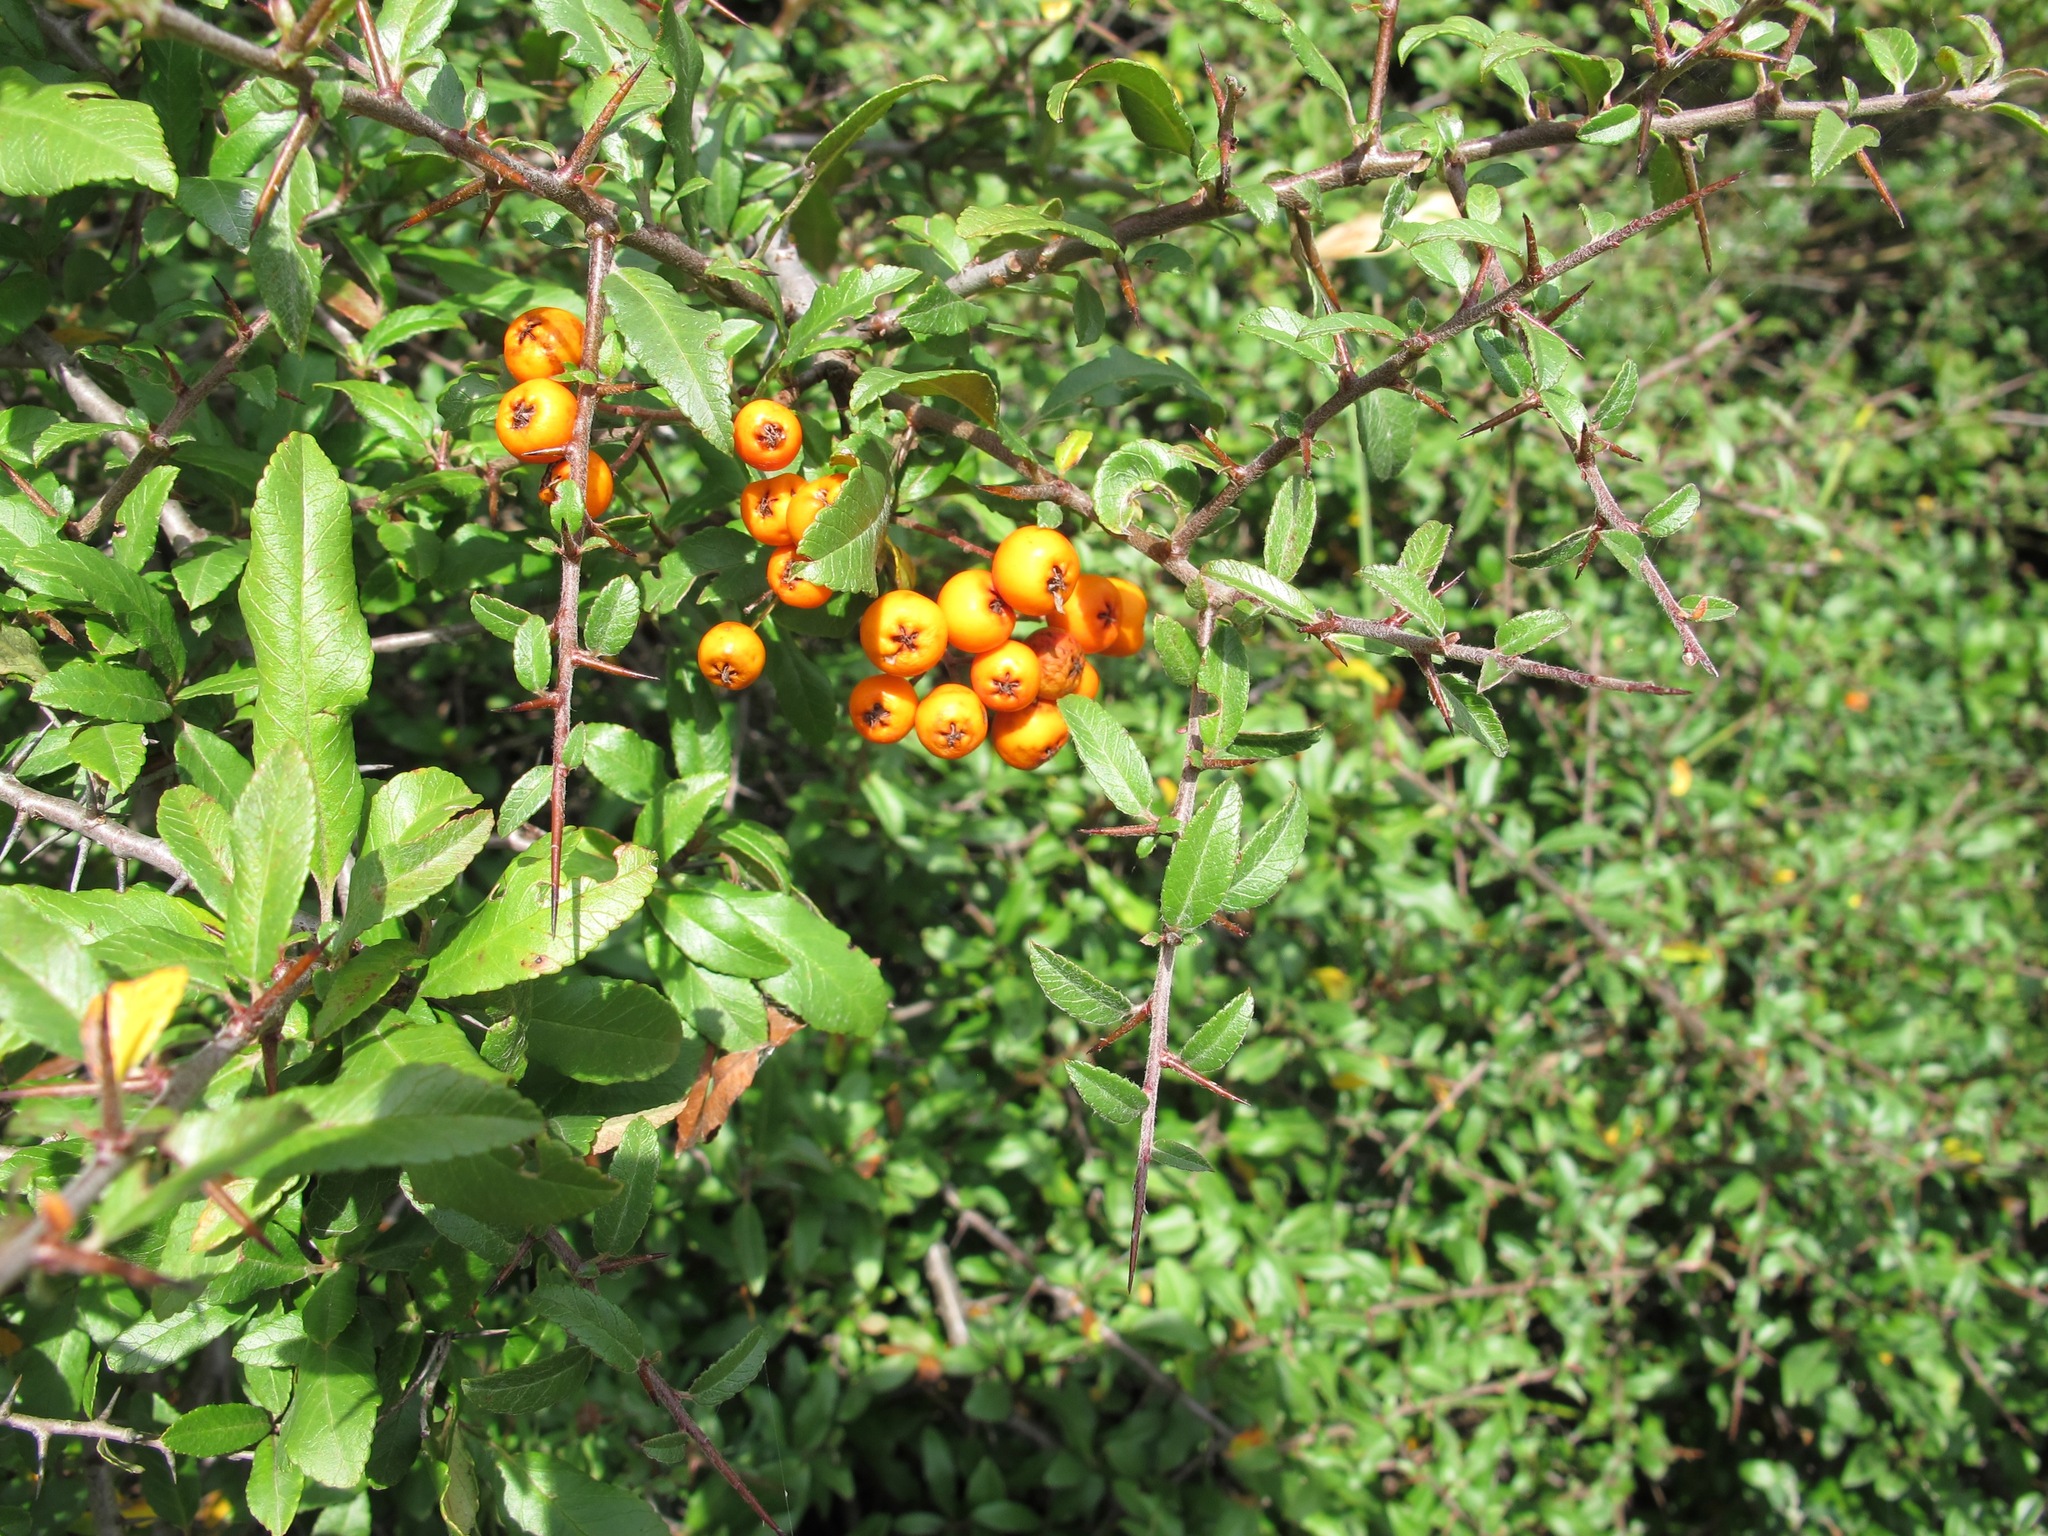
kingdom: Plantae
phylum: Tracheophyta
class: Magnoliopsida
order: Rosales
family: Rosaceae
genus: Pyracantha
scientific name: Pyracantha coccinea
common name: Firethorn
